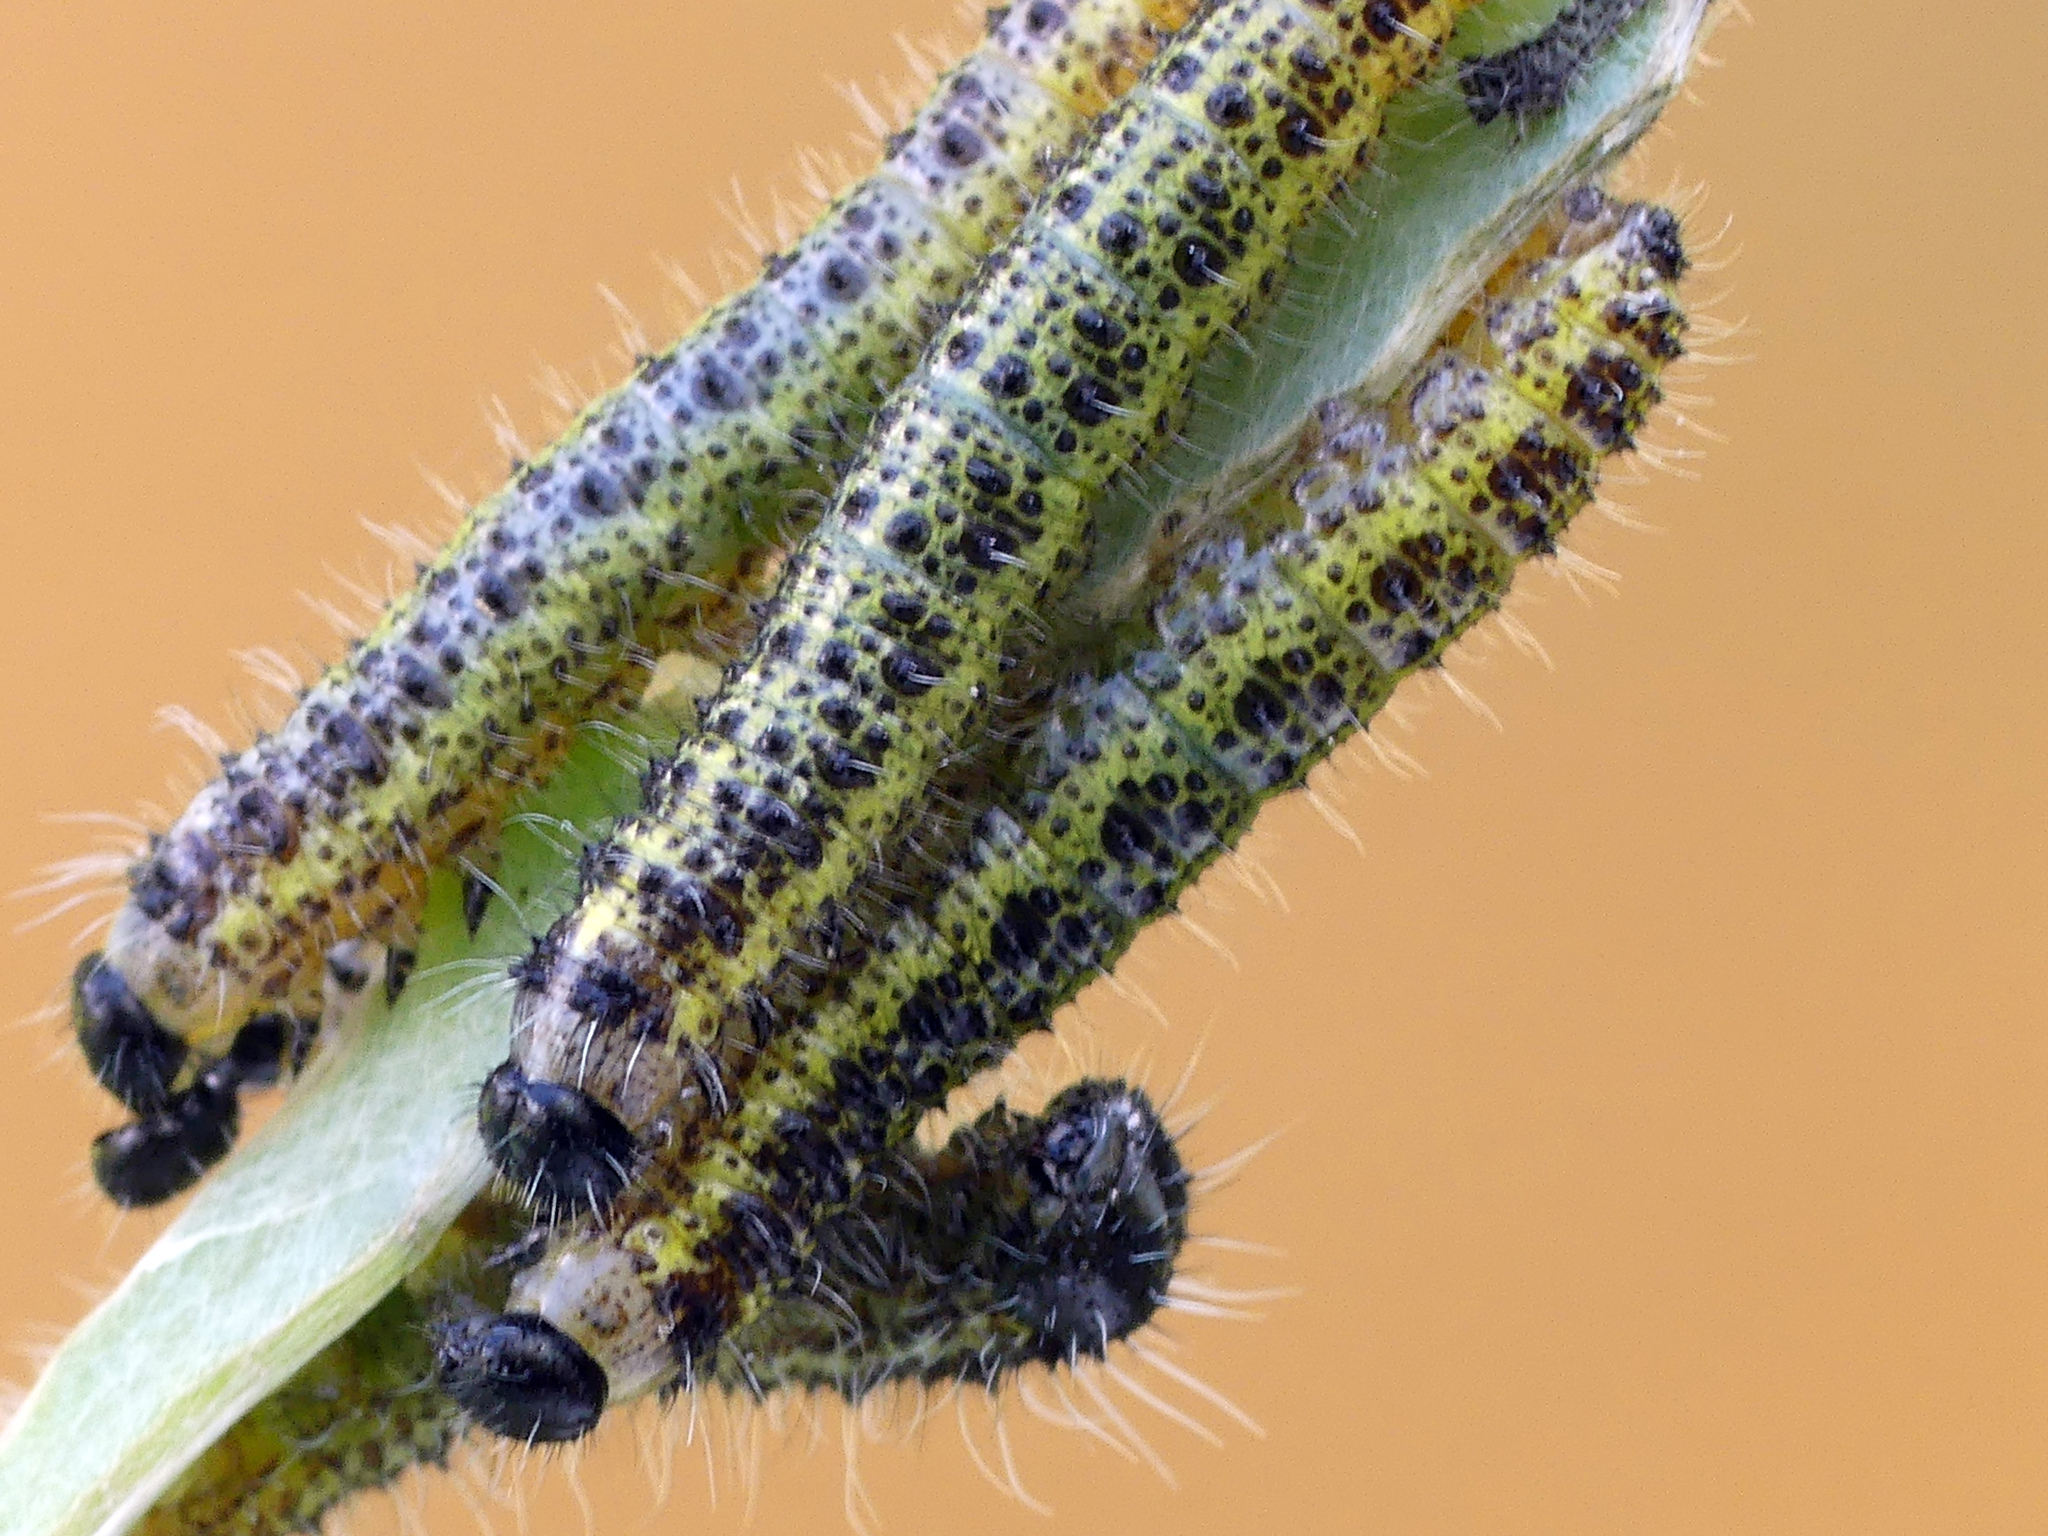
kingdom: Animalia
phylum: Arthropoda
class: Insecta
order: Lepidoptera
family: Pieridae
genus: Pieris
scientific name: Pieris brassicae
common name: Large white
